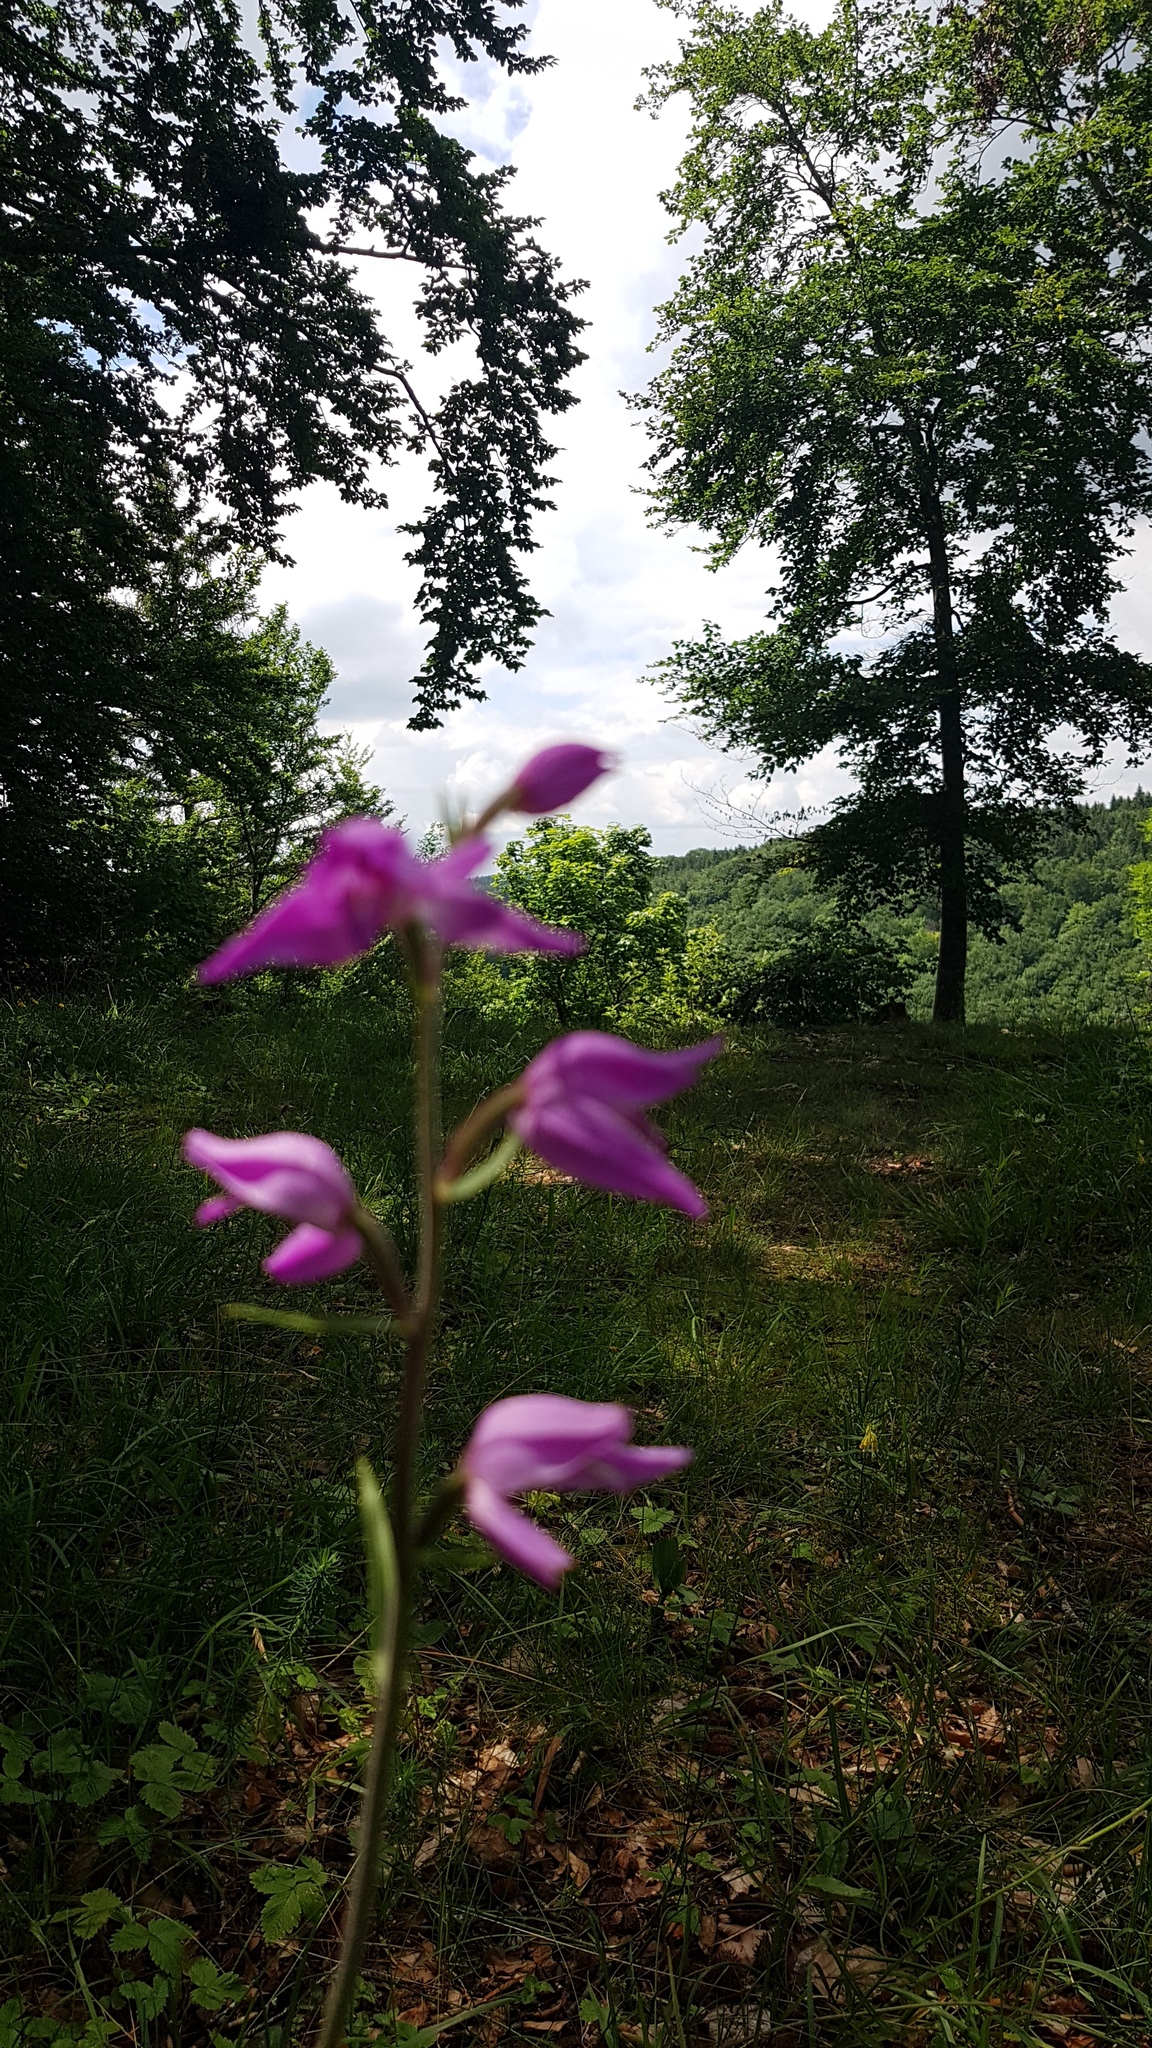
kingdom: Plantae
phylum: Tracheophyta
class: Liliopsida
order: Asparagales
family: Orchidaceae
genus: Cephalanthera
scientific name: Cephalanthera rubra
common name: Red helleborine
